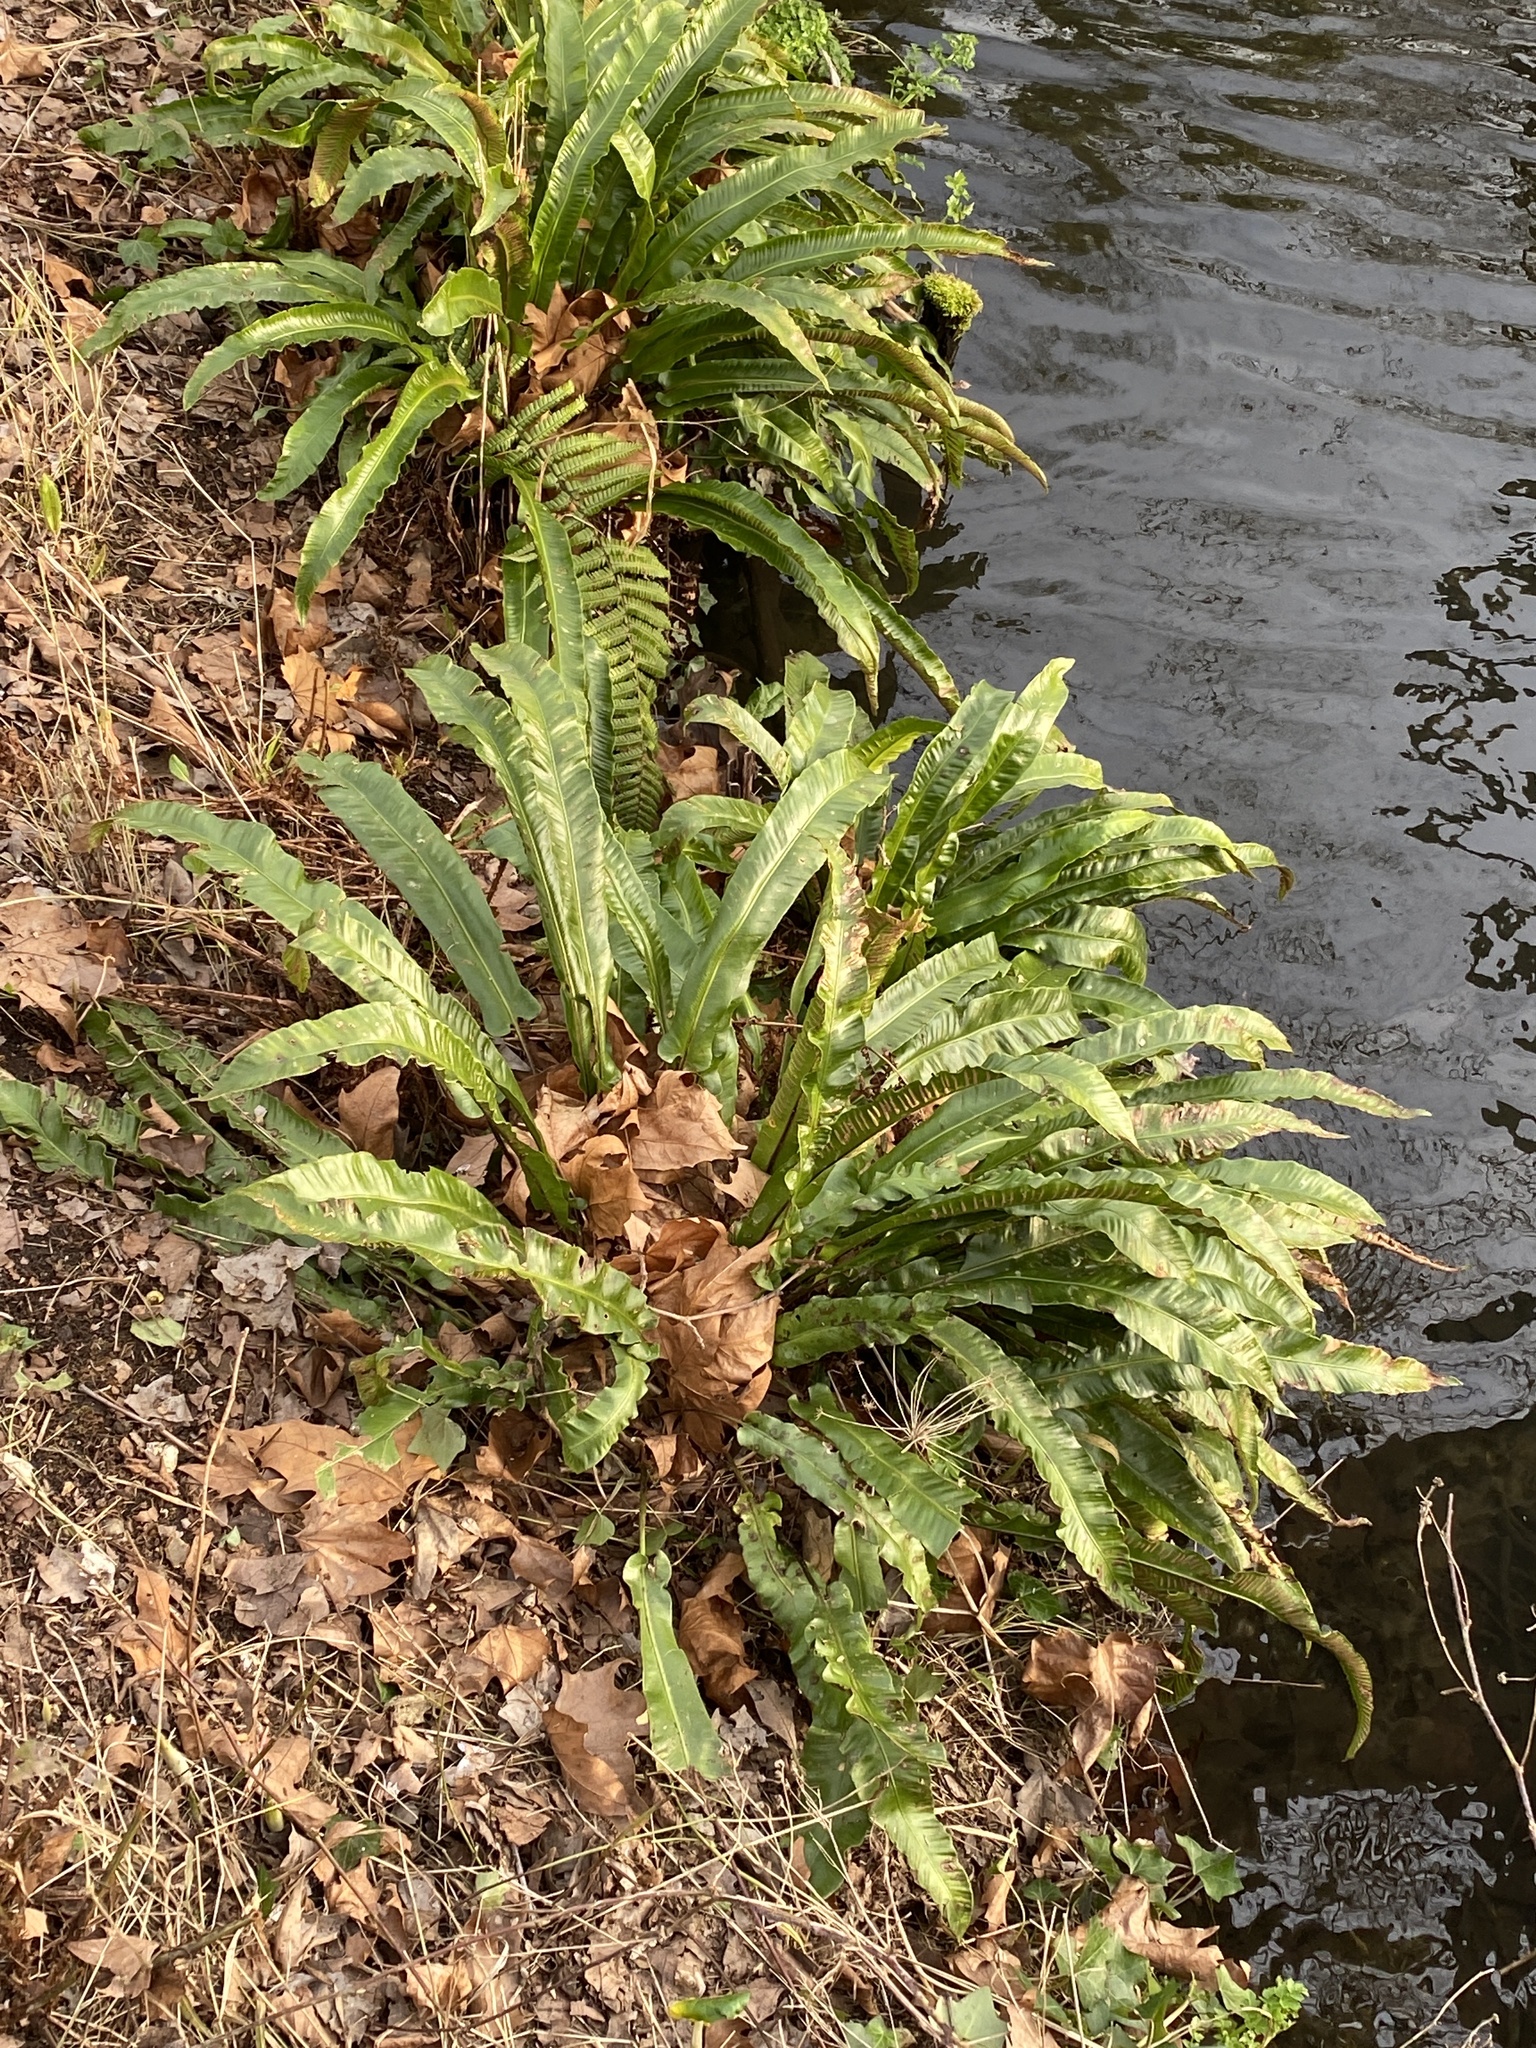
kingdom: Plantae
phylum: Tracheophyta
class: Polypodiopsida
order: Polypodiales
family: Aspleniaceae
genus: Asplenium
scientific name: Asplenium scolopendrium
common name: Hart's-tongue fern
